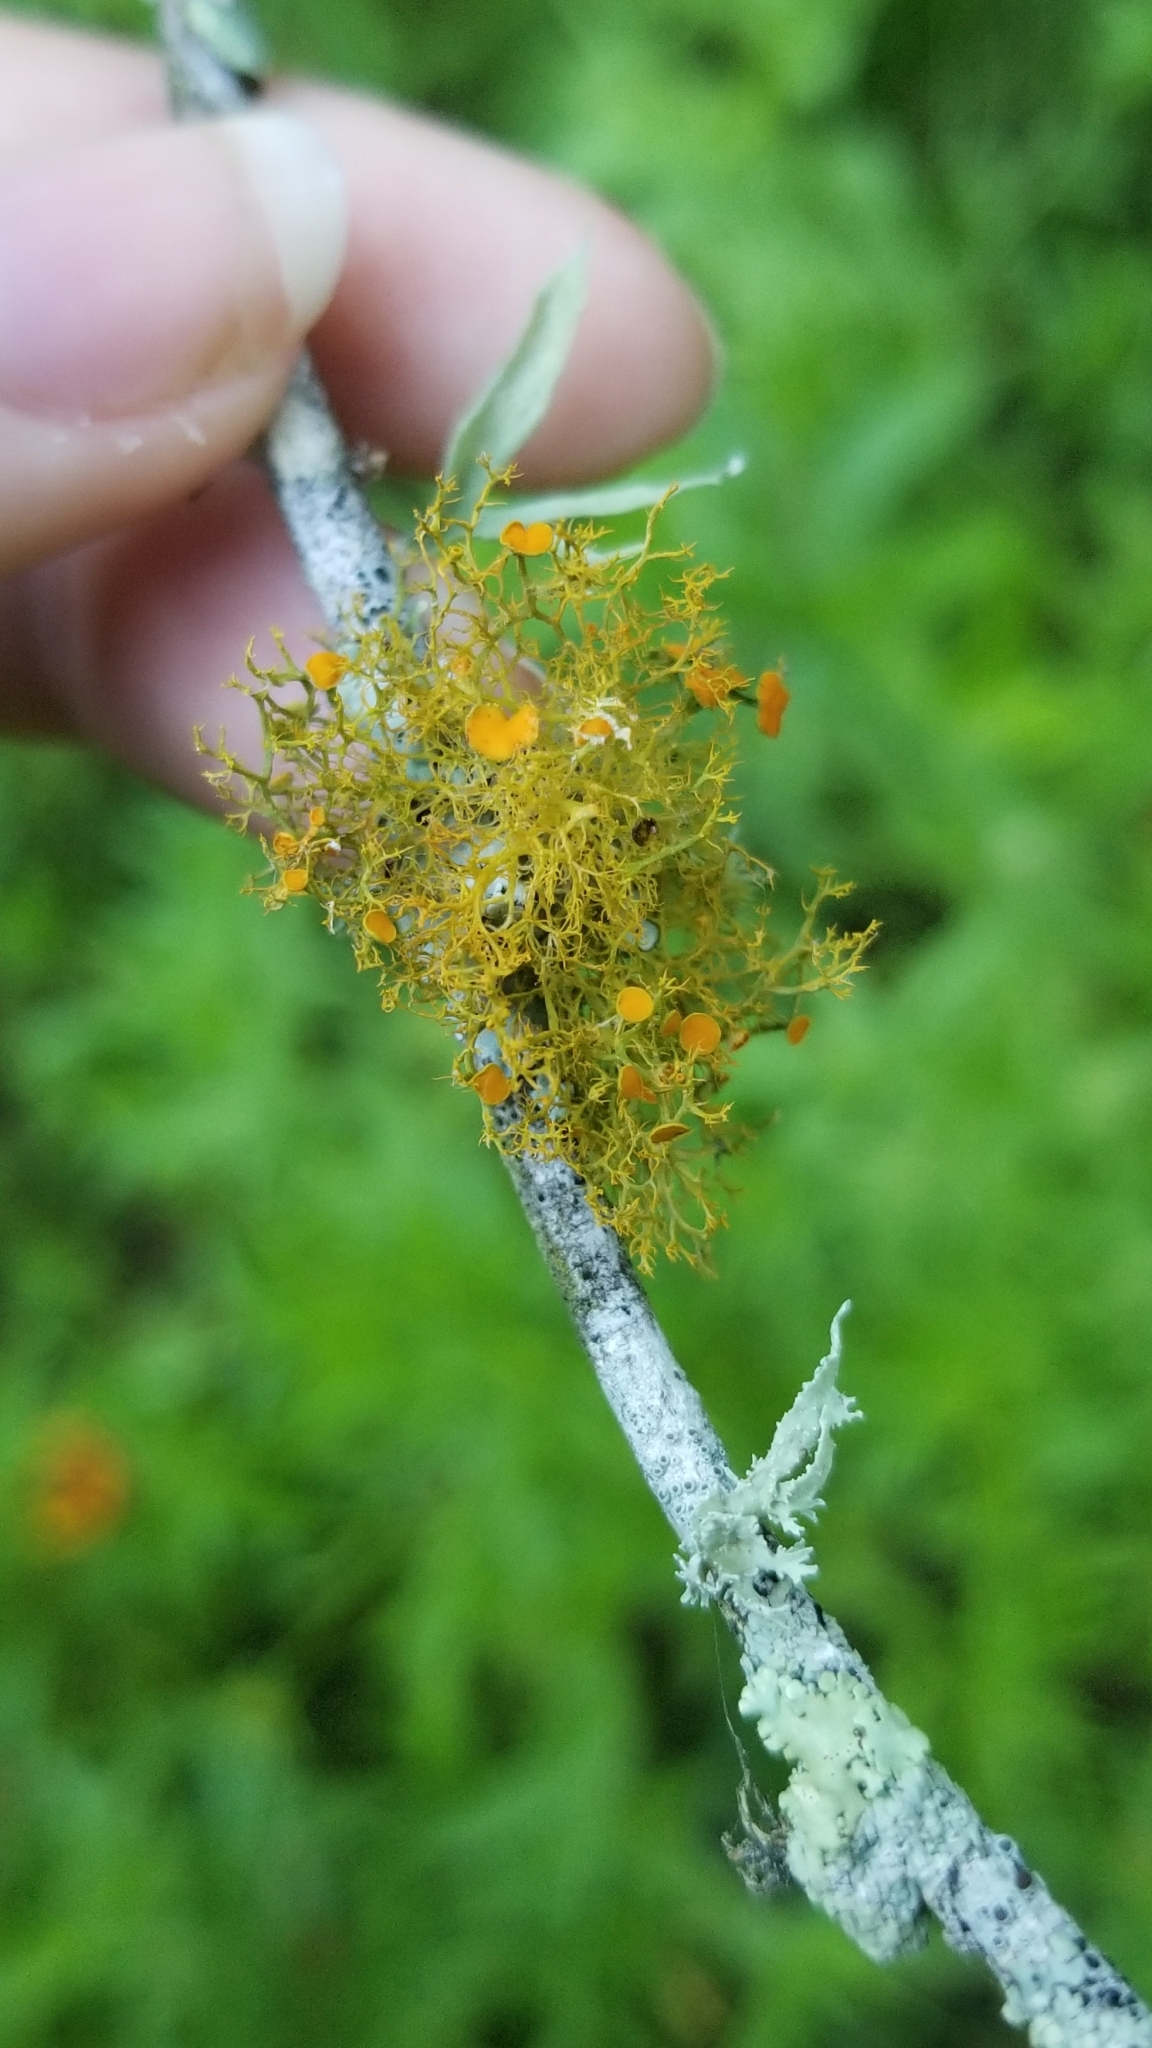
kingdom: Fungi
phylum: Ascomycota
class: Lecanoromycetes
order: Teloschistales
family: Teloschistaceae
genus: Teloschistes
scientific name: Teloschistes exilis
